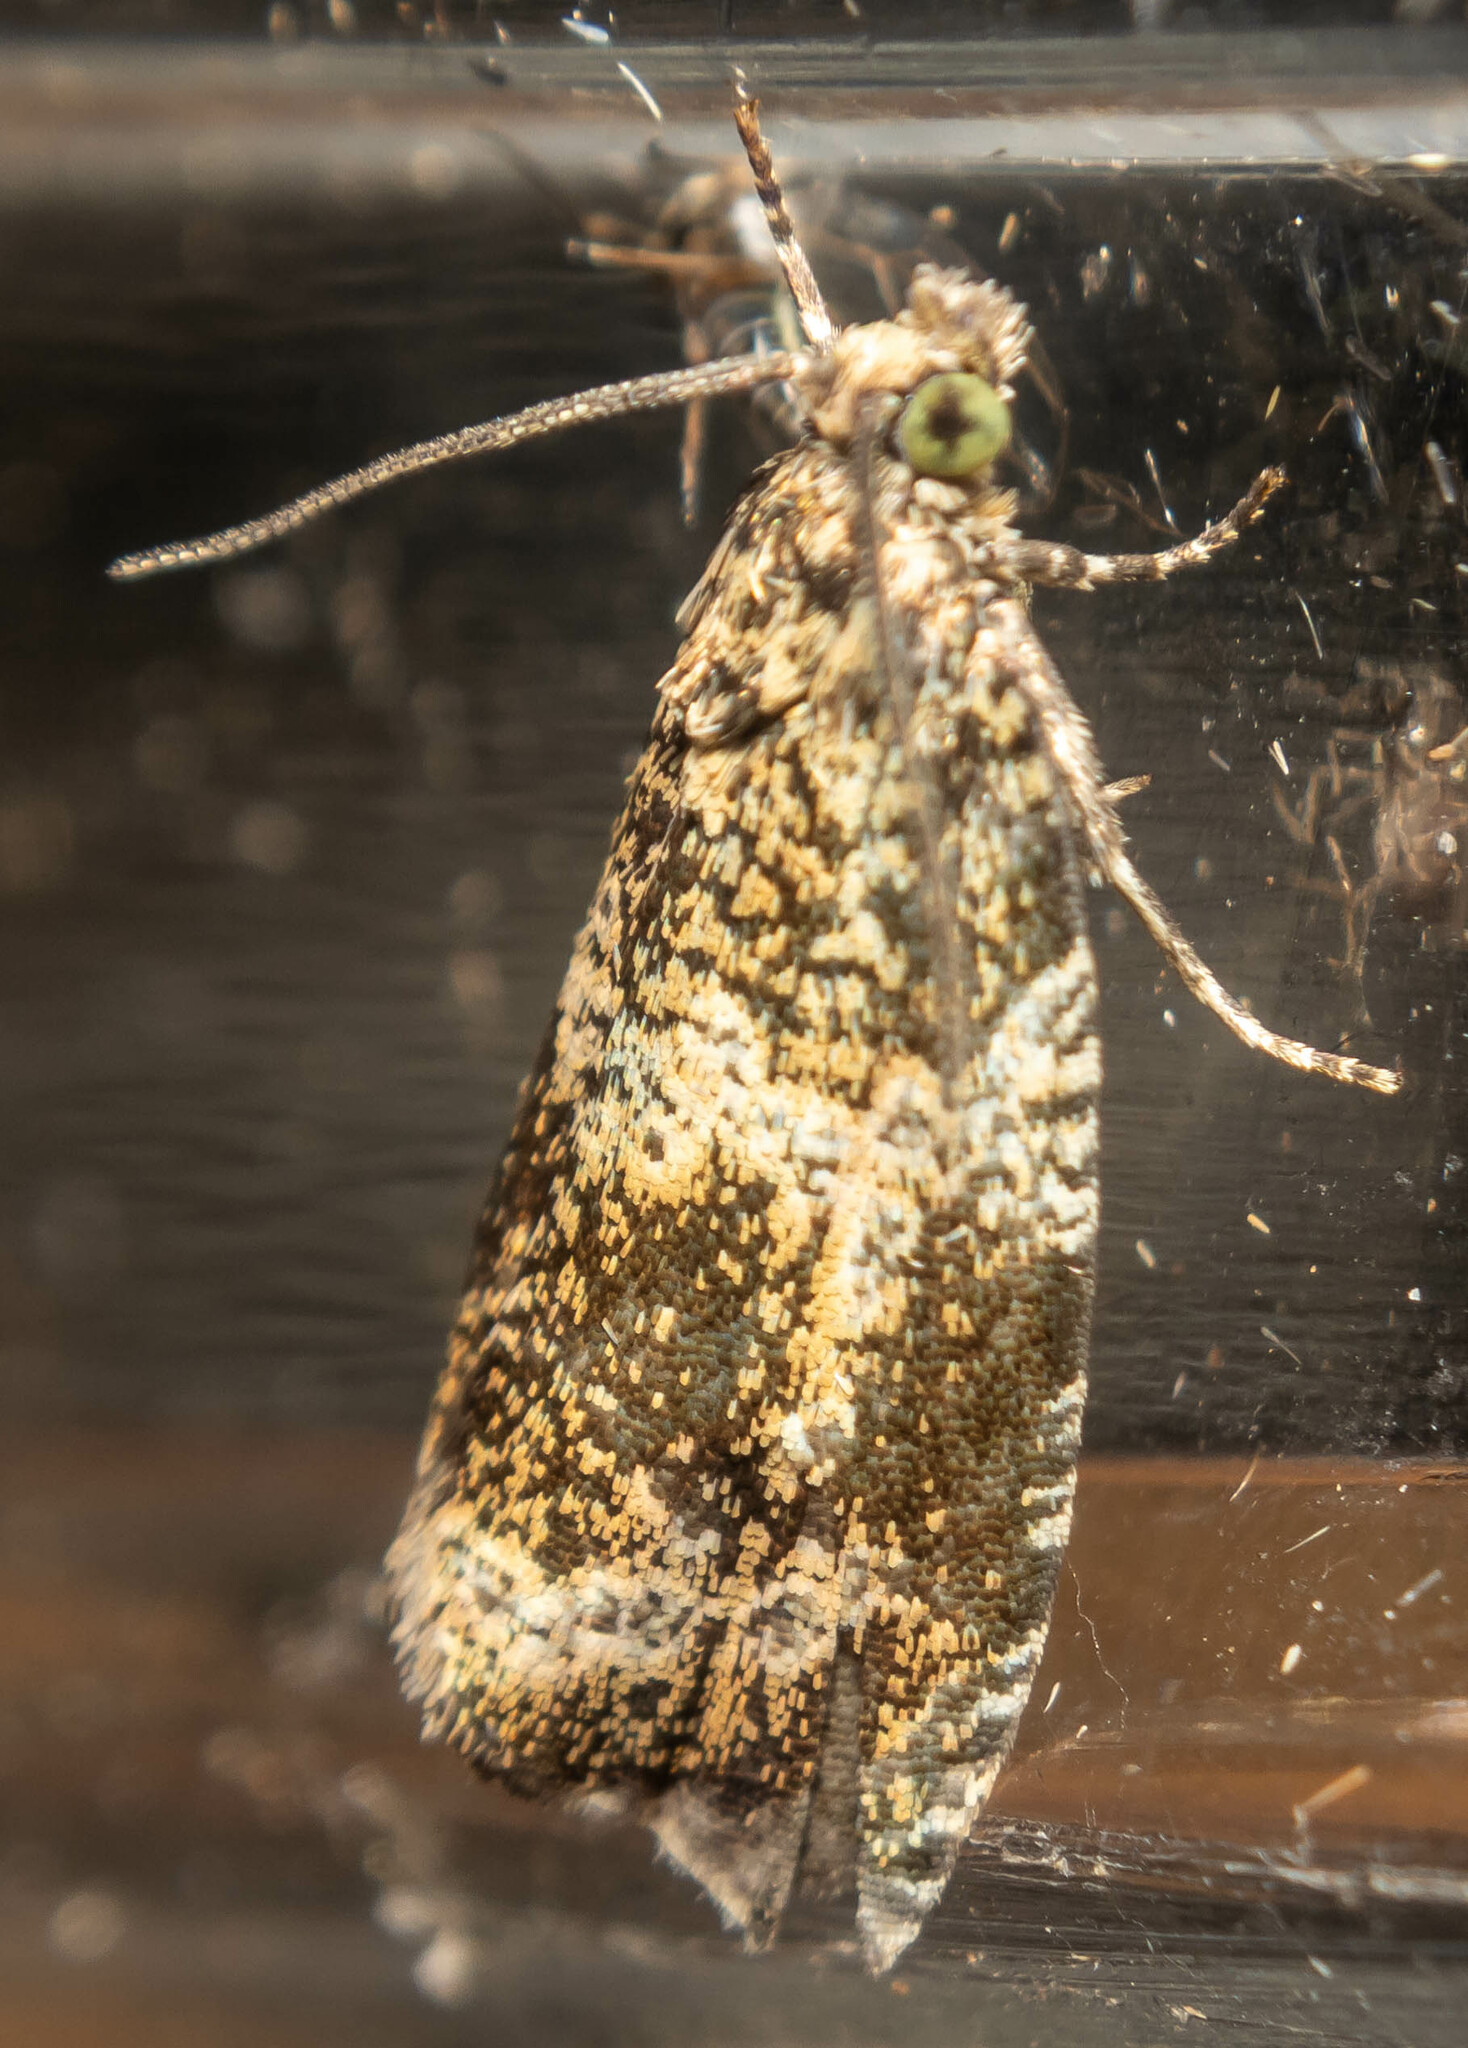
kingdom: Animalia
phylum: Arthropoda
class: Insecta
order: Lepidoptera
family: Tortricidae
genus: Syricoris
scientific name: Syricoris lacunana
